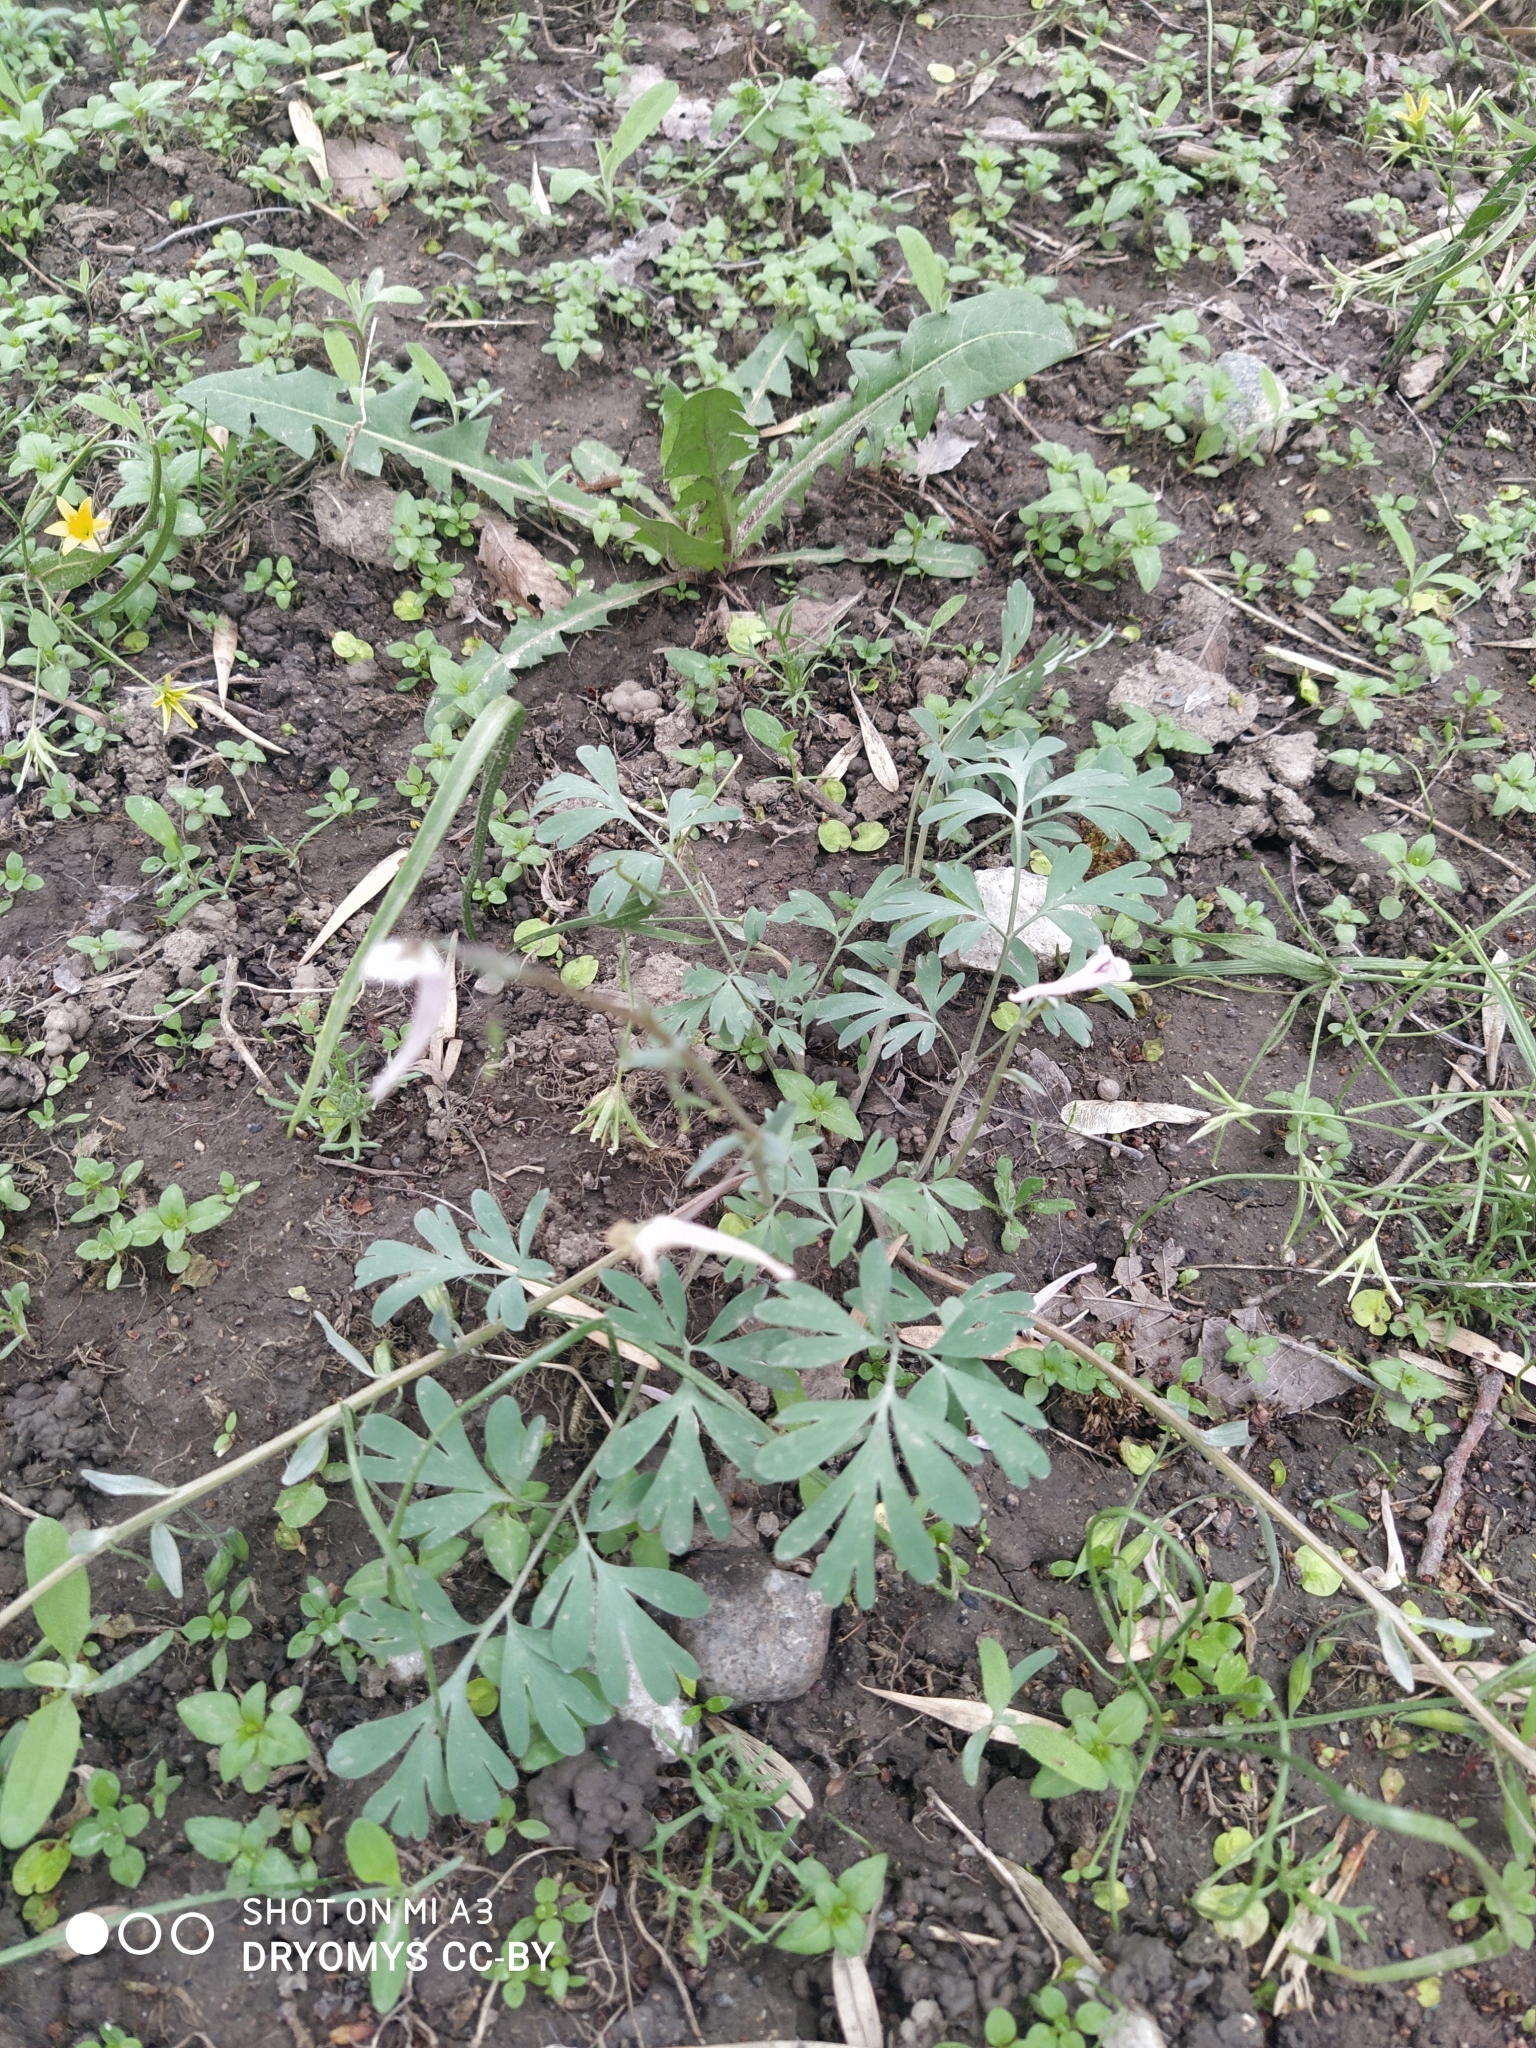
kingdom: Plantae
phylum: Tracheophyta
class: Magnoliopsida
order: Ranunculales
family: Papaveraceae
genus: Corydalis
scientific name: Corydalis glaucescens
